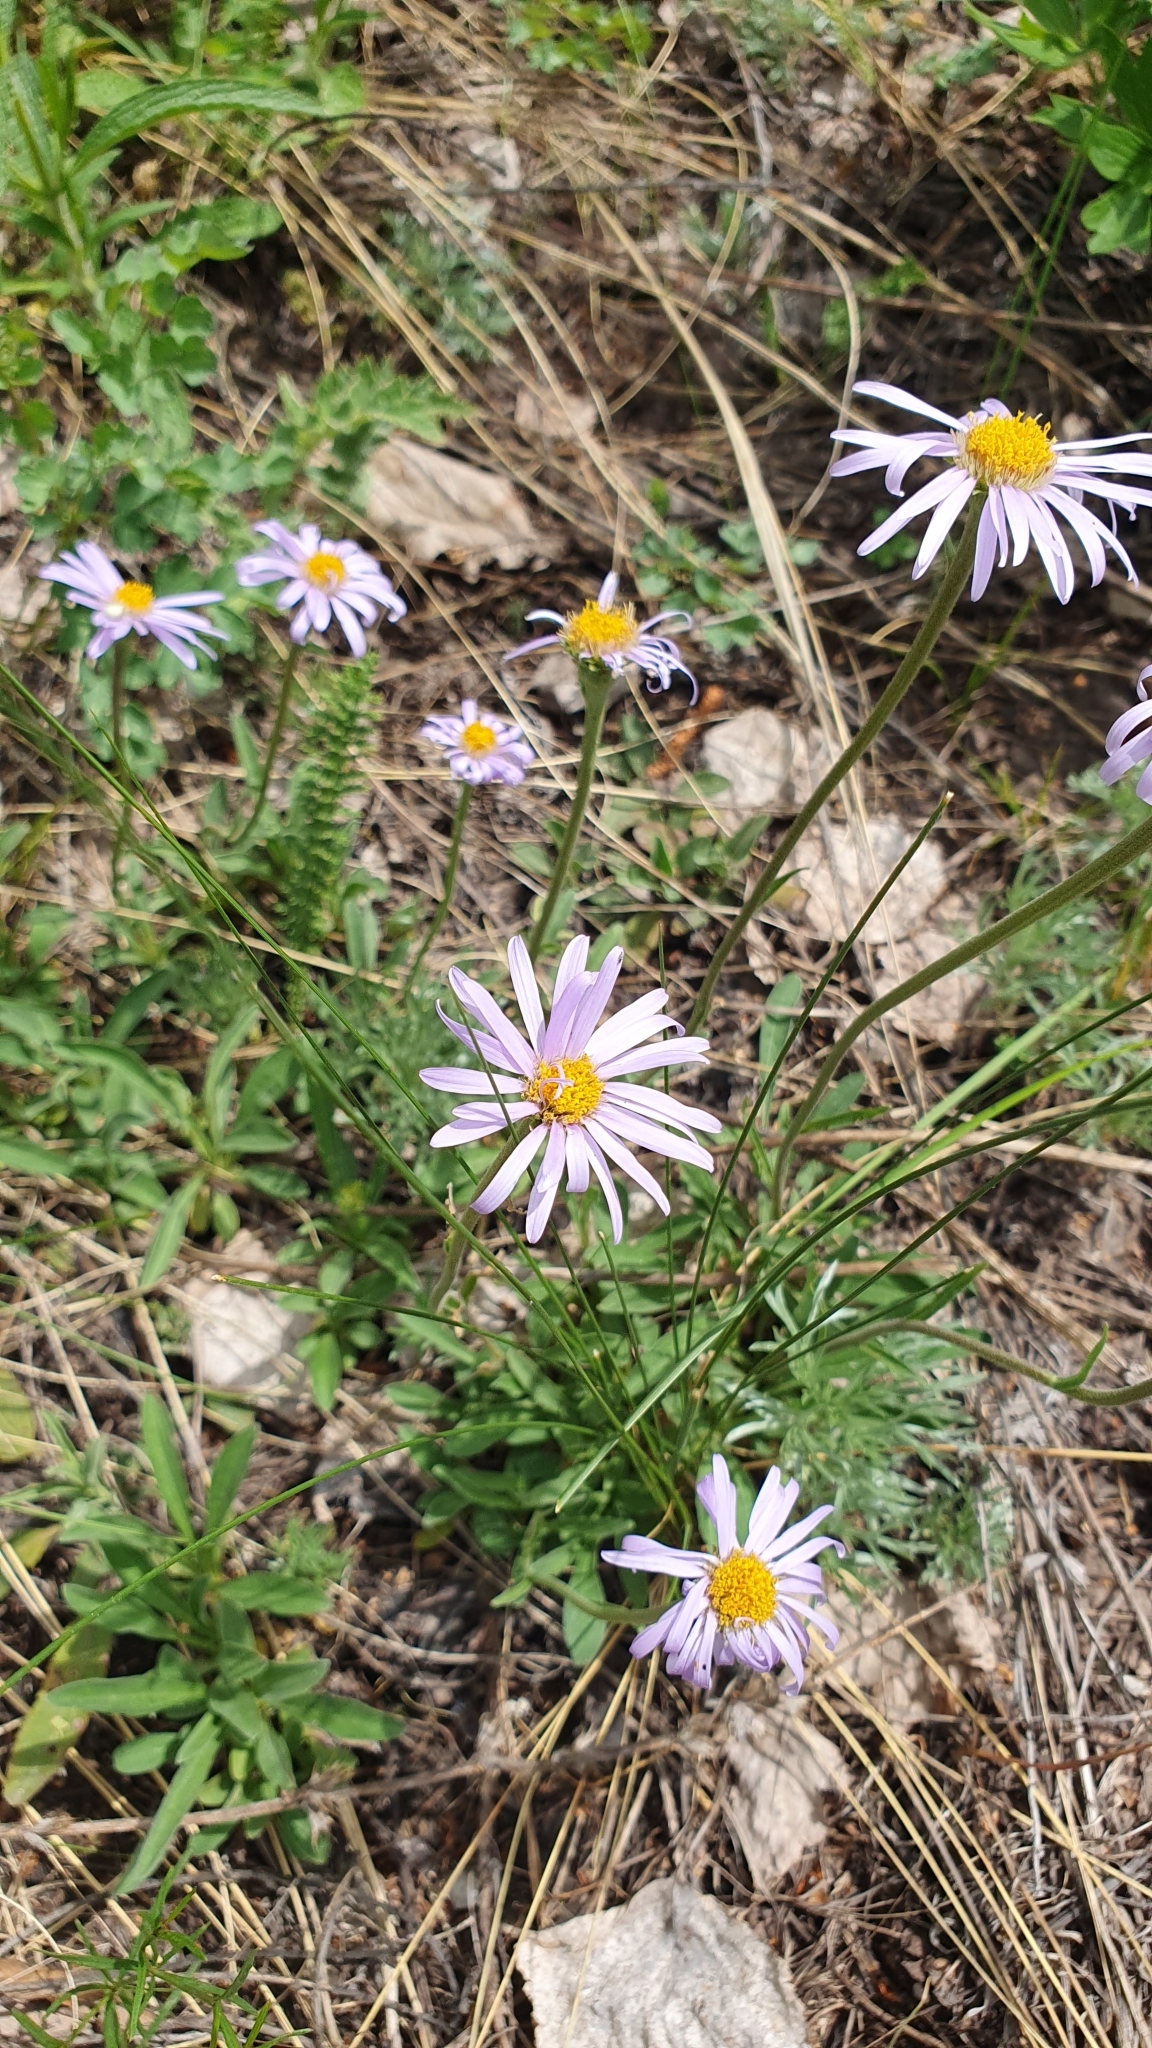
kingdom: Plantae
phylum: Tracheophyta
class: Magnoliopsida
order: Asterales
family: Asteraceae
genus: Aster
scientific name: Aster alpinus
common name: Alpine aster
